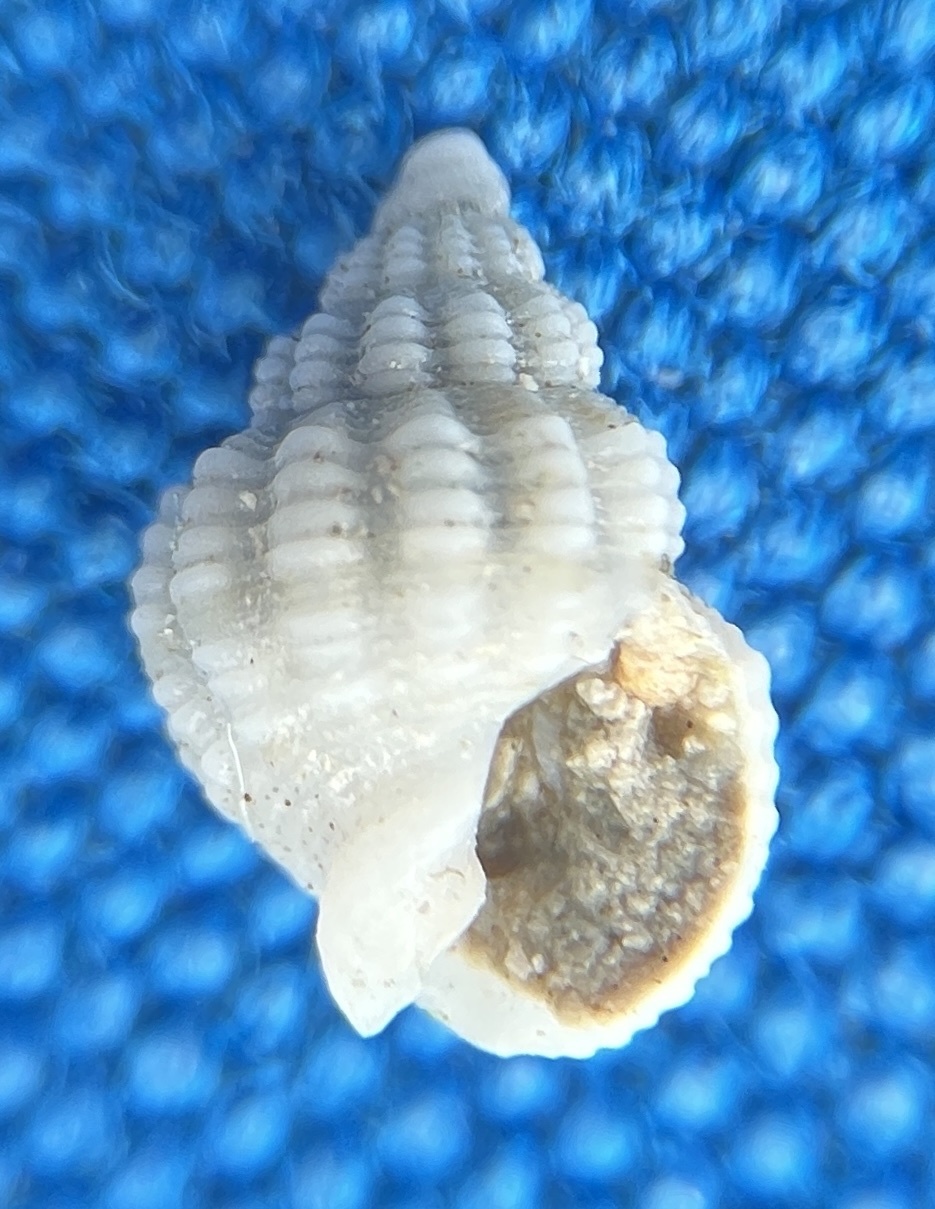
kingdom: Animalia
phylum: Mollusca
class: Gastropoda
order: Neogastropoda
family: Nassariidae
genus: Phrontis
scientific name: Phrontis alba
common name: White nassa
